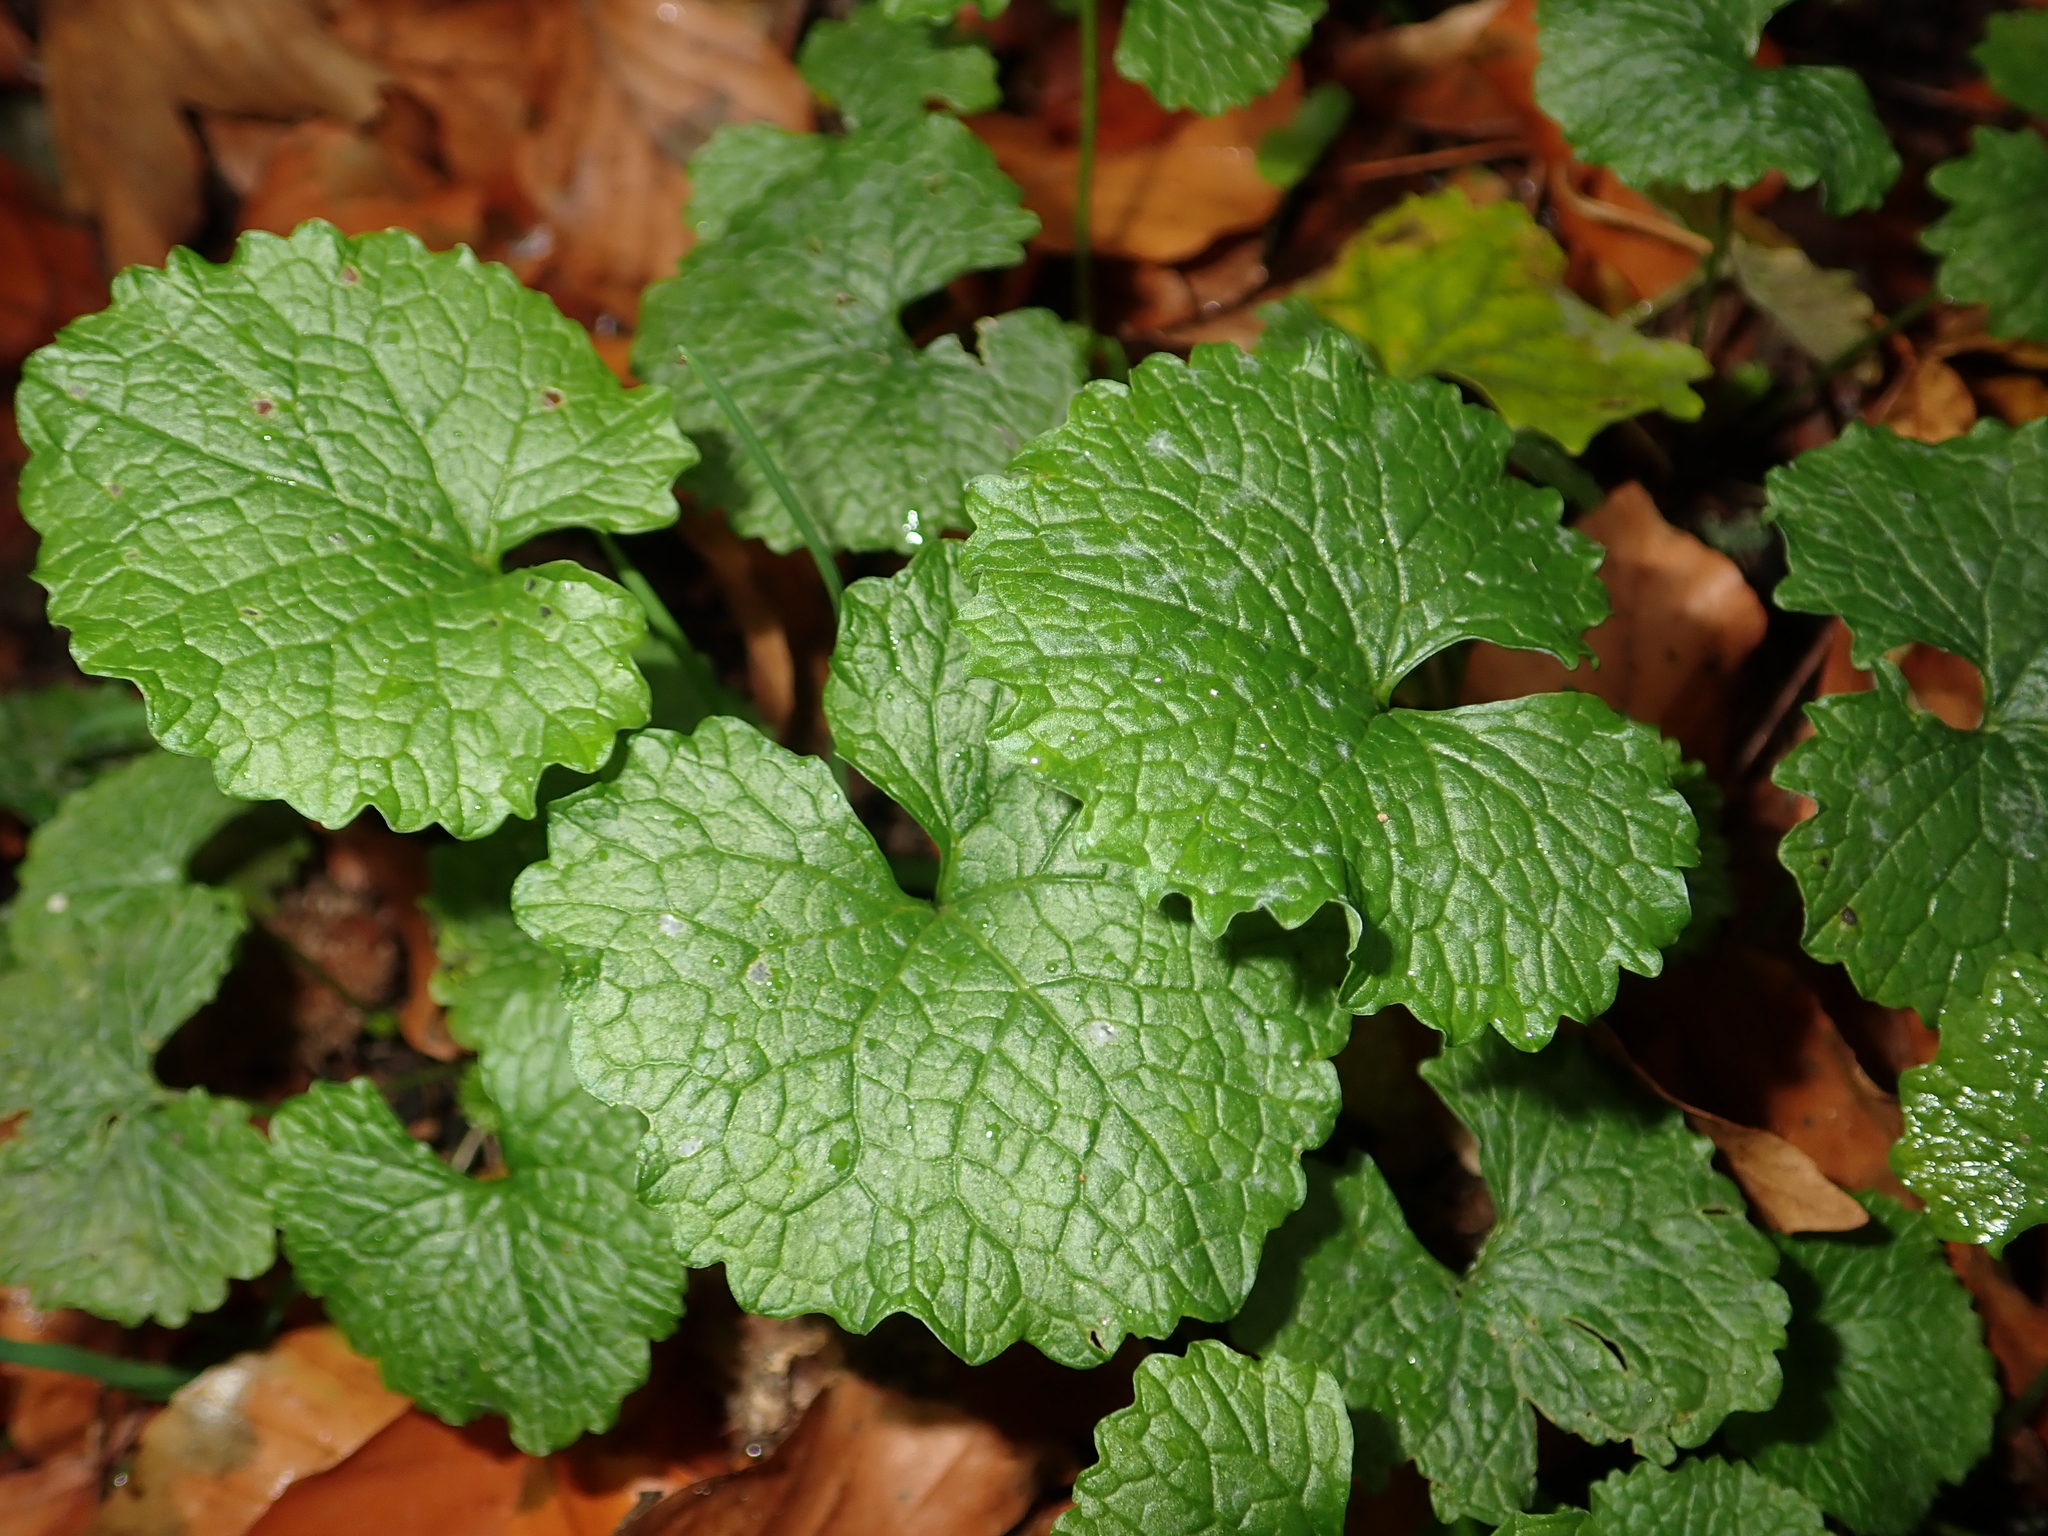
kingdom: Plantae
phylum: Tracheophyta
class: Magnoliopsida
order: Brassicales
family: Brassicaceae
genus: Alliaria
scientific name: Alliaria petiolata
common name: Garlic mustard
